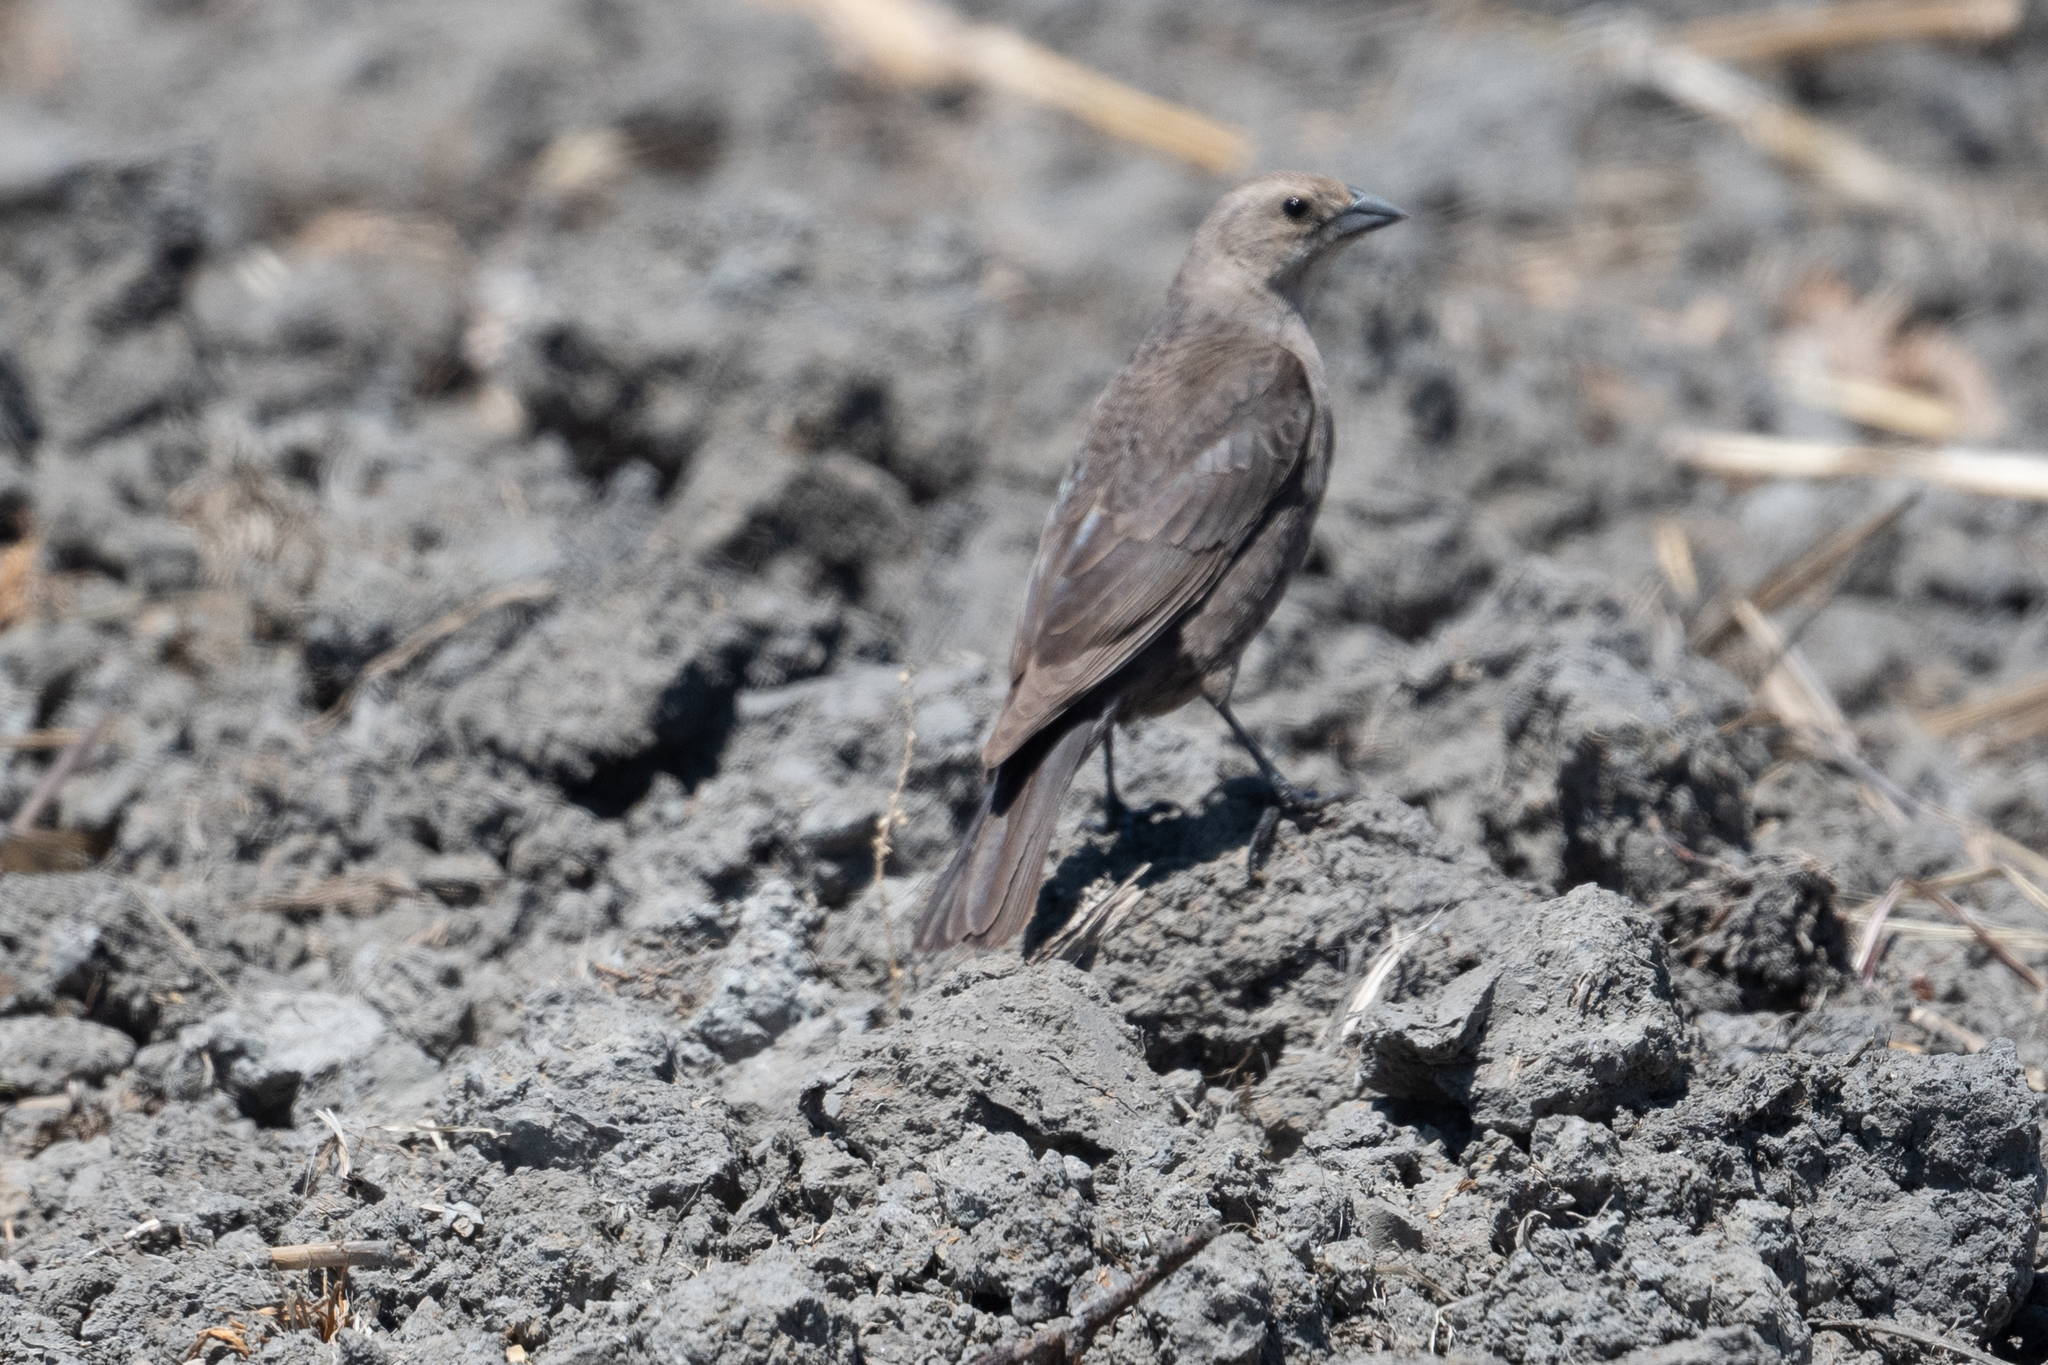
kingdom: Animalia
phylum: Chordata
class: Aves
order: Passeriformes
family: Icteridae
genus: Molothrus
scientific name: Molothrus ater
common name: Brown-headed cowbird
